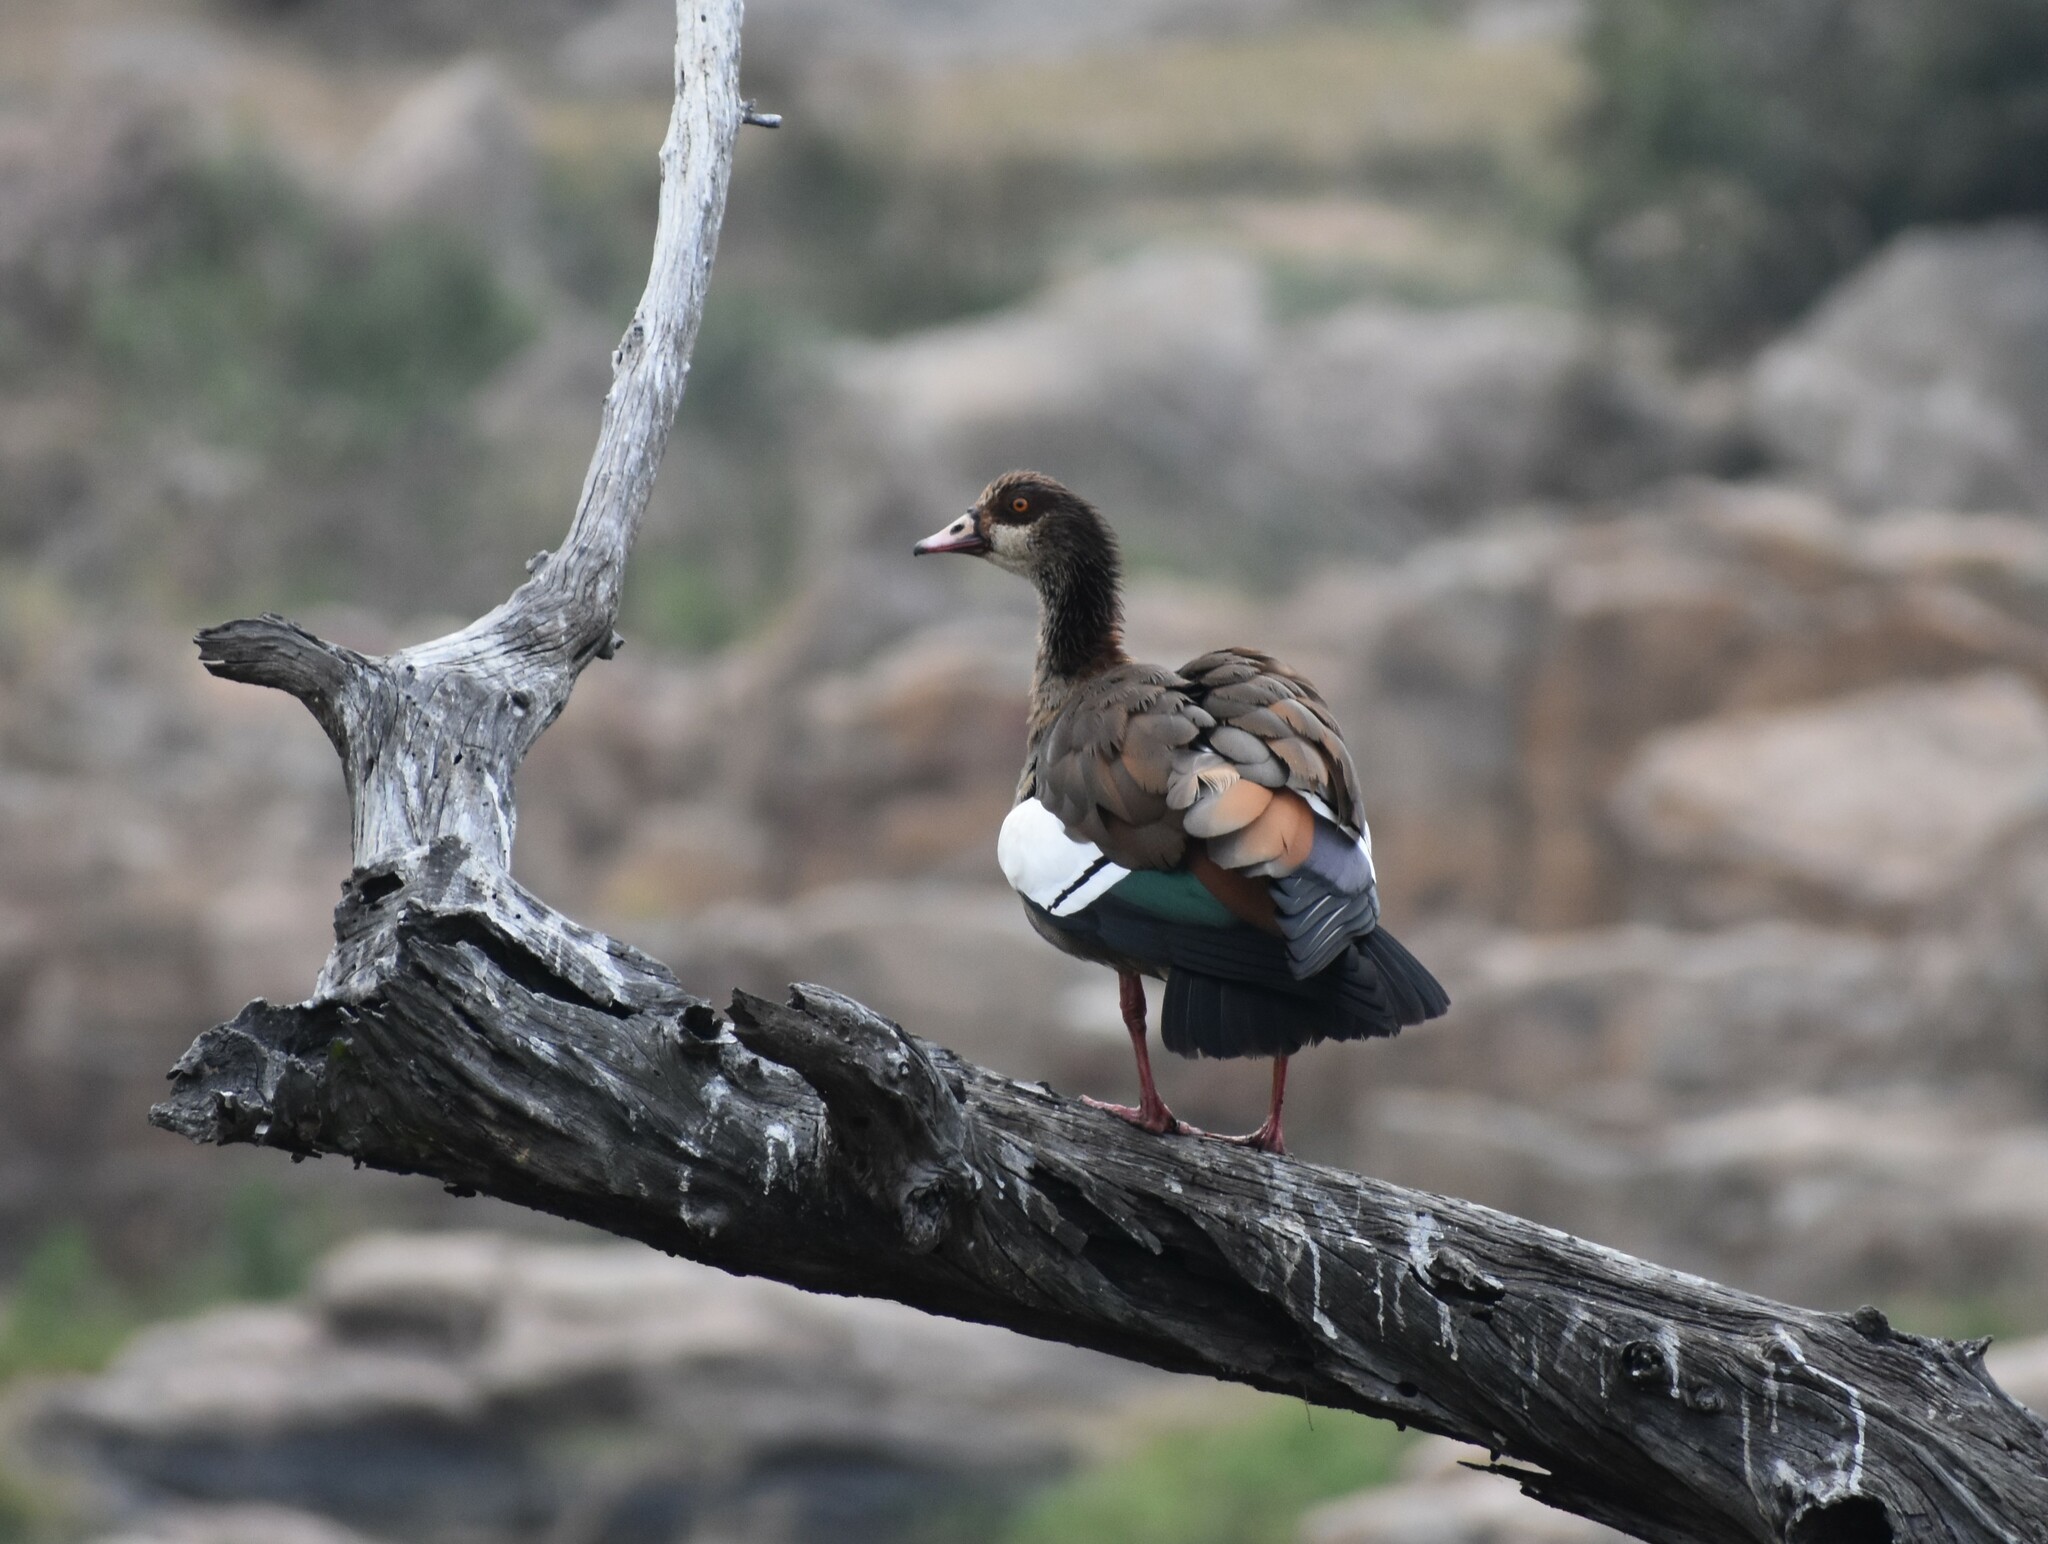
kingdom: Animalia
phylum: Chordata
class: Aves
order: Anseriformes
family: Anatidae
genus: Alopochen
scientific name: Alopochen aegyptiaca
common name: Egyptian goose
